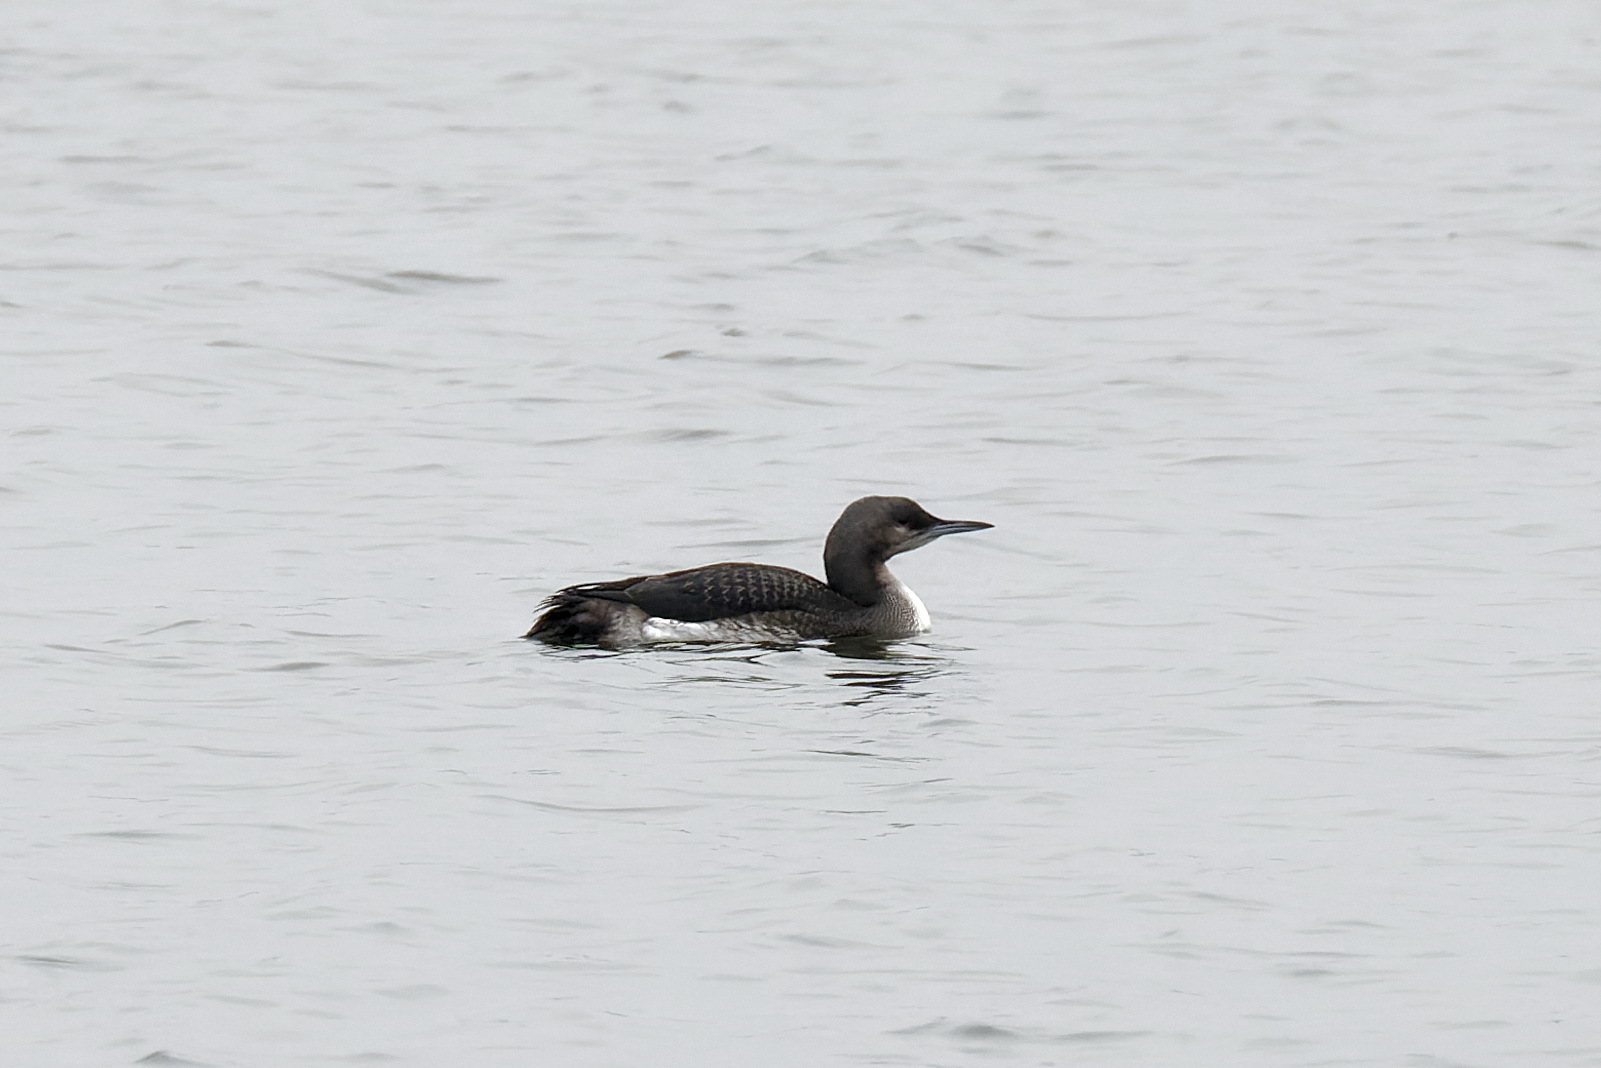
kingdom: Animalia
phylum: Chordata
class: Aves
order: Gaviiformes
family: Gaviidae
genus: Gavia
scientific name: Gavia arctica
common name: Black-throated loon
